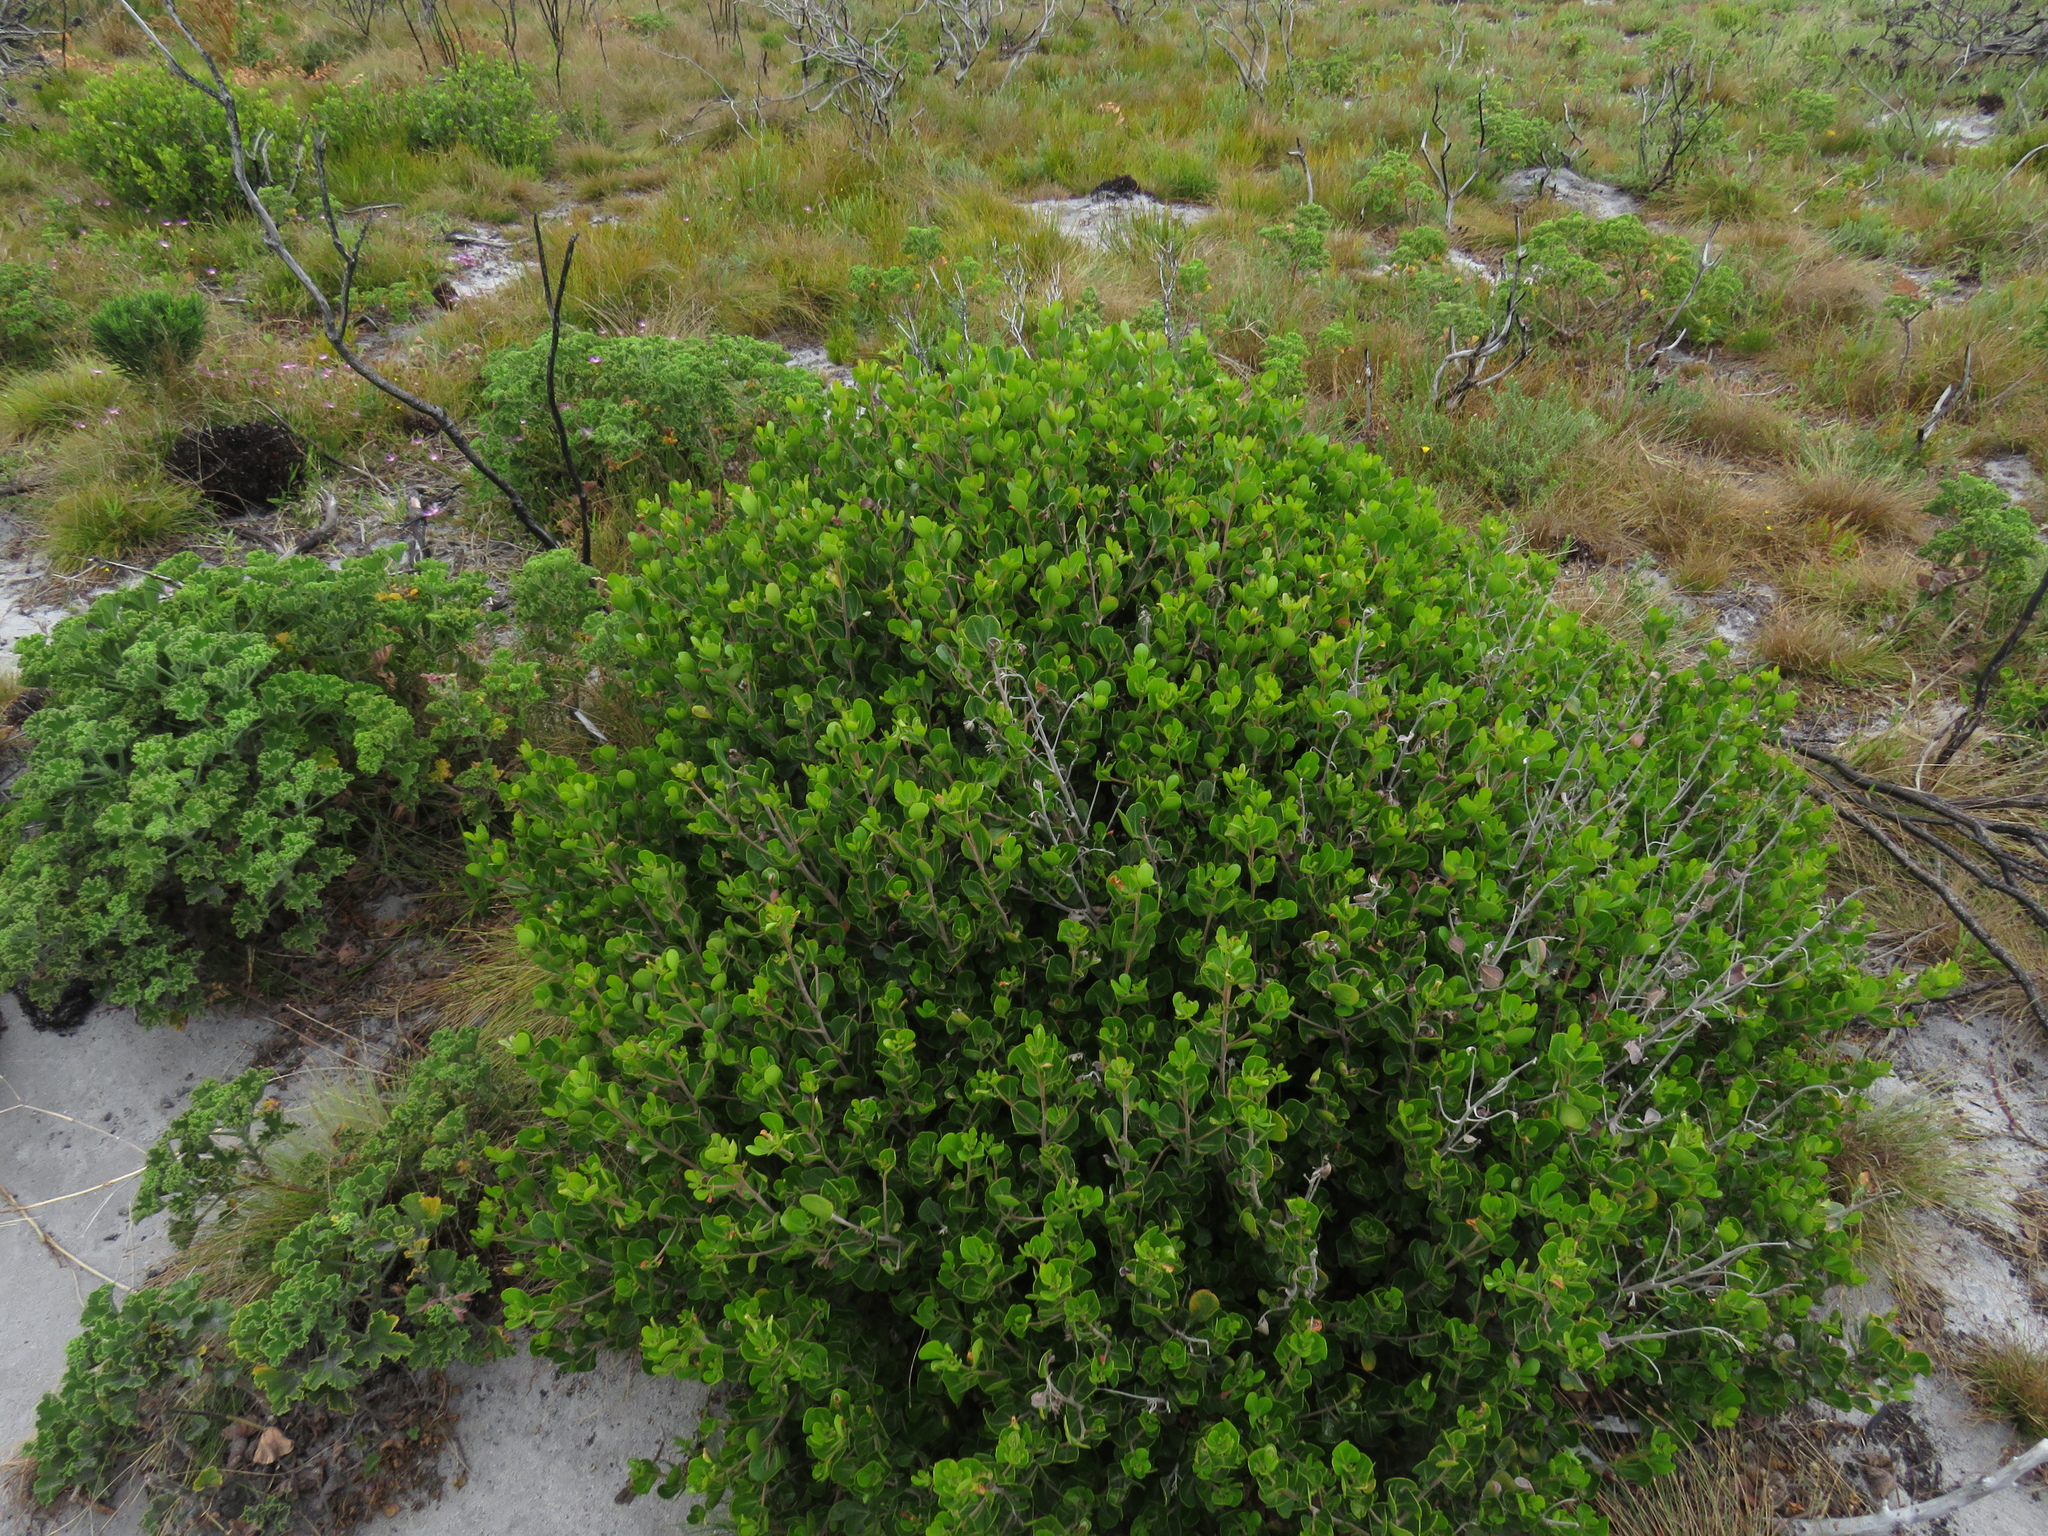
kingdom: Plantae
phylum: Tracheophyta
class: Magnoliopsida
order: Sapindales
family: Anacardiaceae
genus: Searsia
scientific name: Searsia lucida
